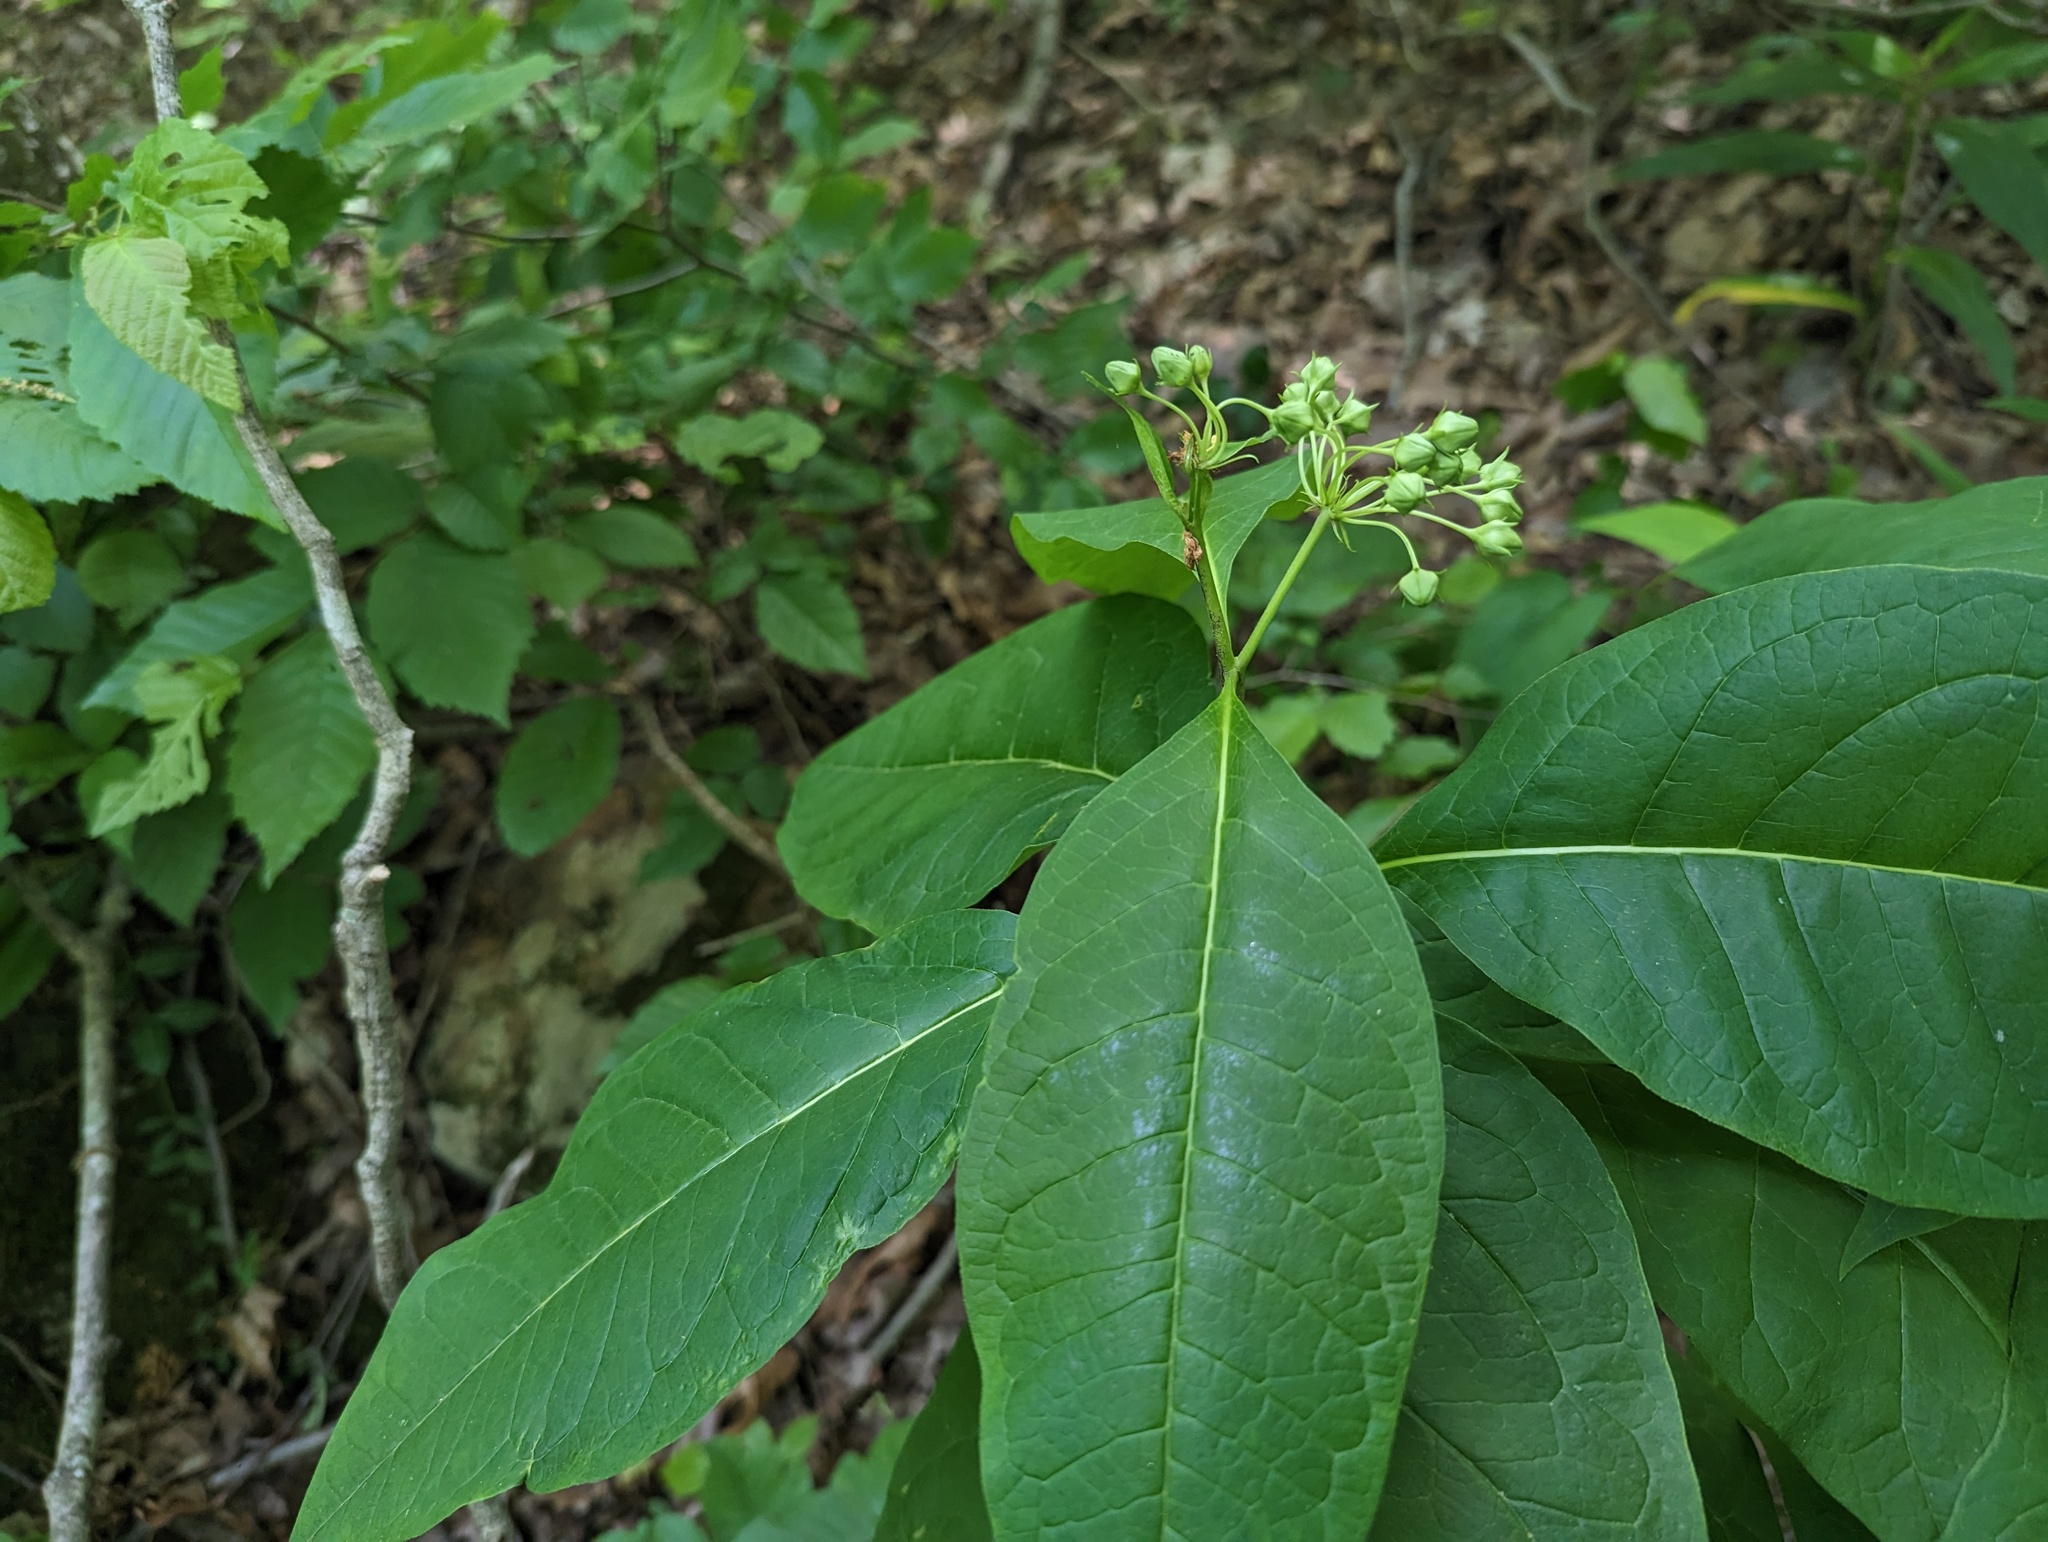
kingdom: Plantae
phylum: Tracheophyta
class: Magnoliopsida
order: Gentianales
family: Apocynaceae
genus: Asclepias
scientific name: Asclepias exaltata
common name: Poke milkweed
